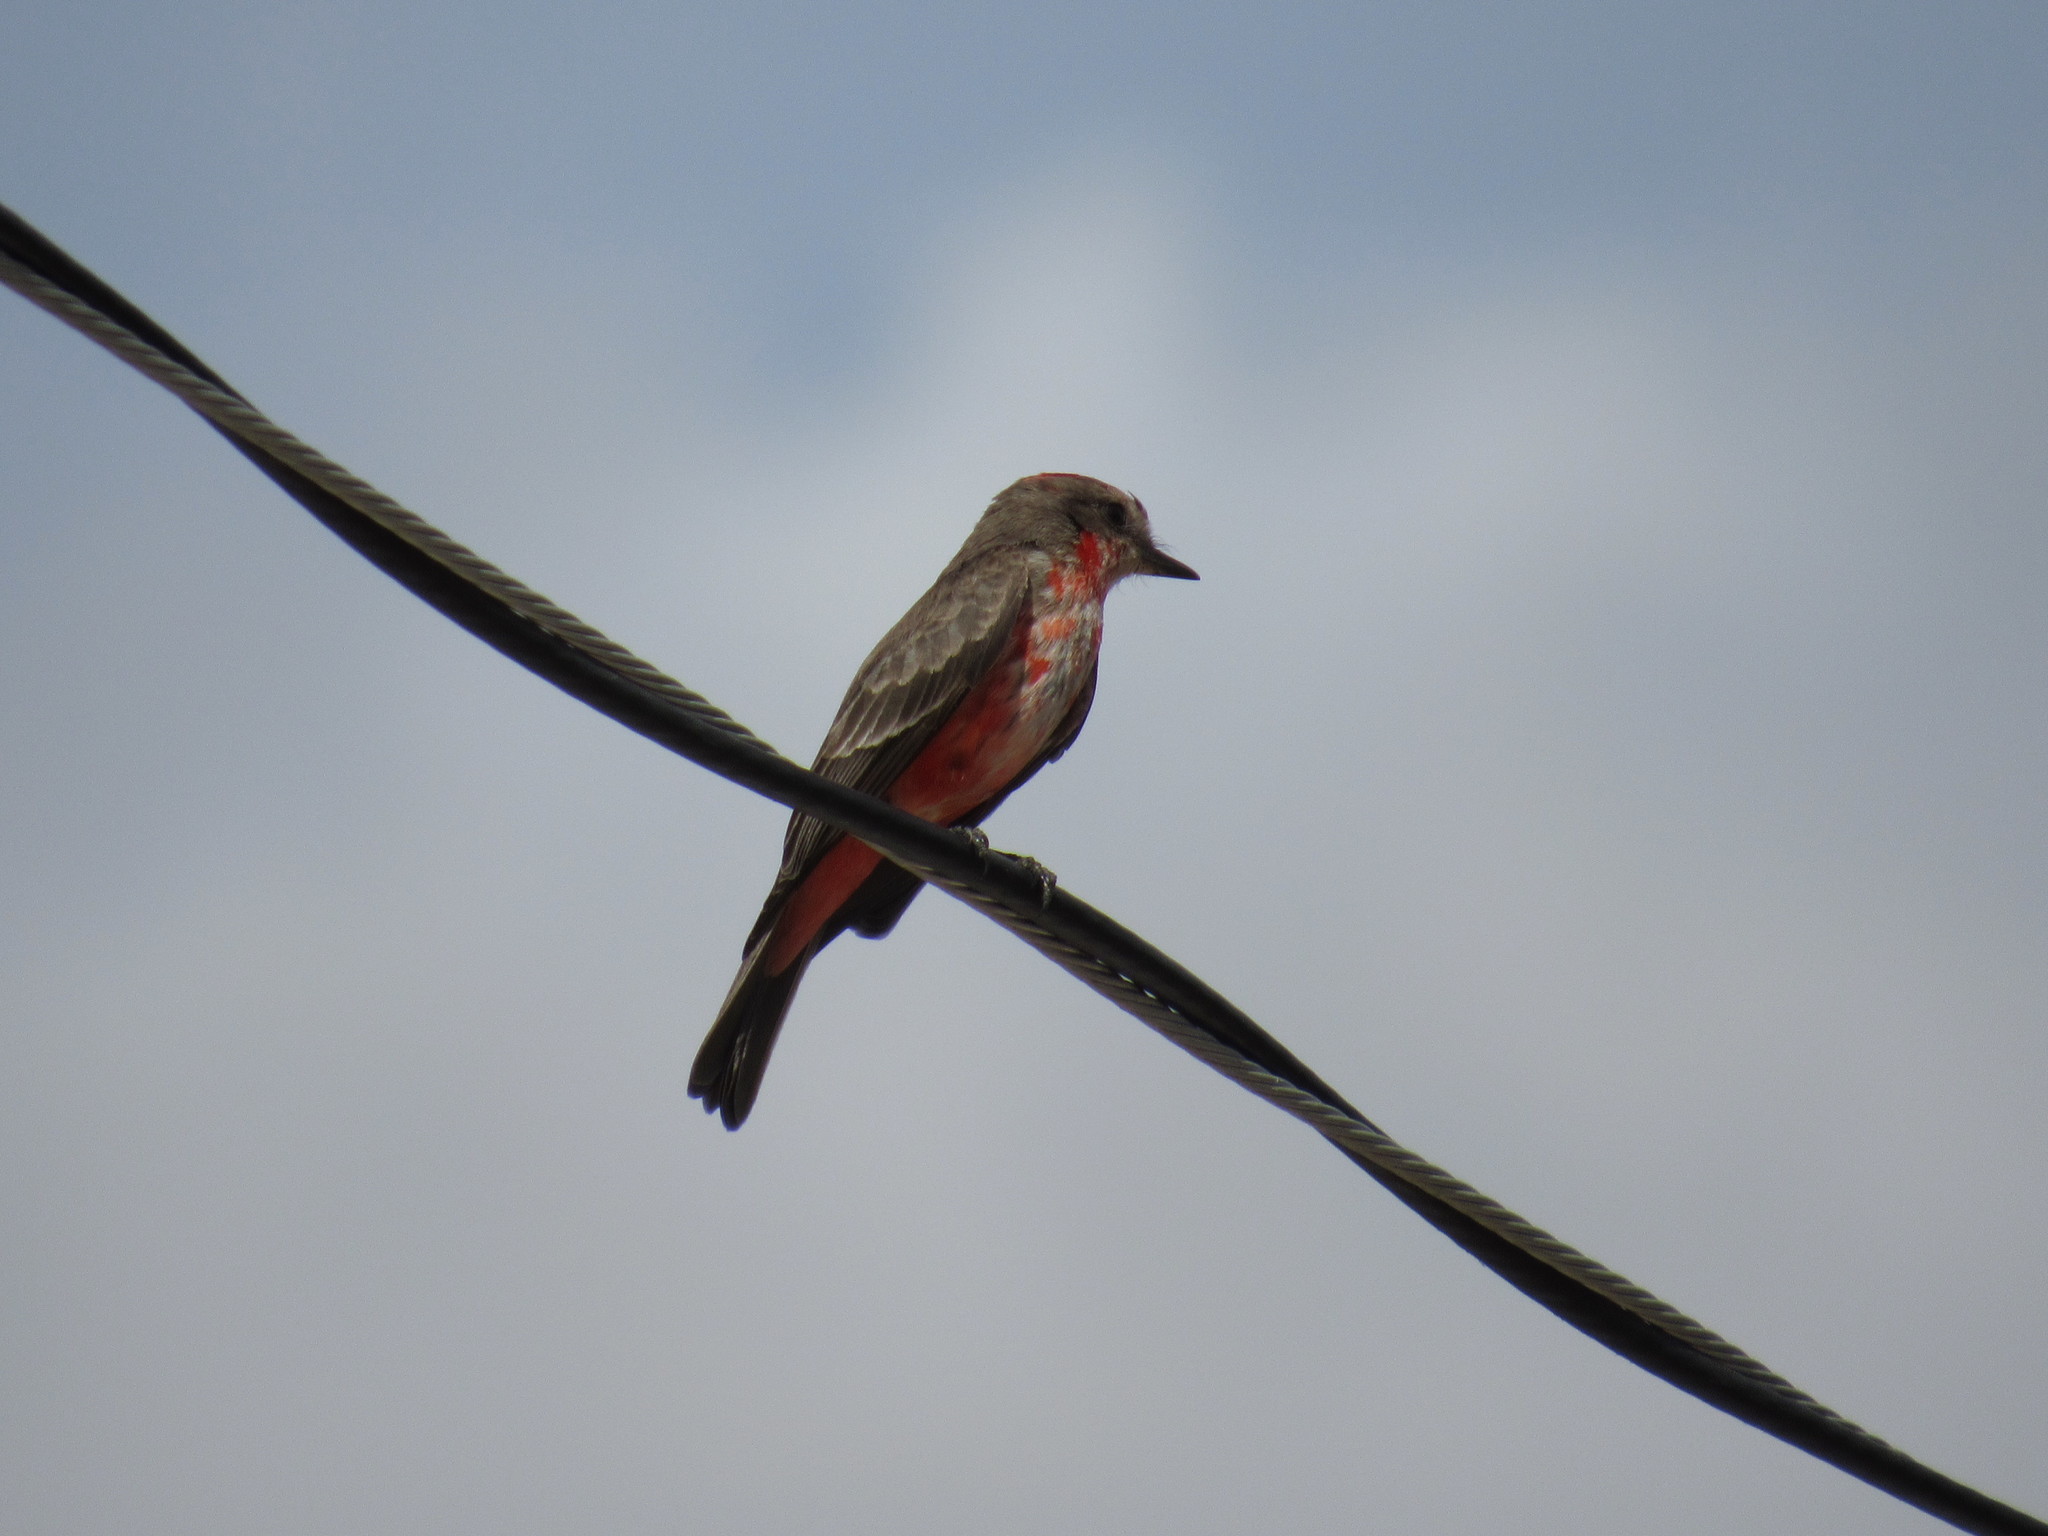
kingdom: Animalia
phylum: Chordata
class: Aves
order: Passeriformes
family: Tyrannidae
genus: Pyrocephalus
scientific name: Pyrocephalus rubinus
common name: Vermilion flycatcher
